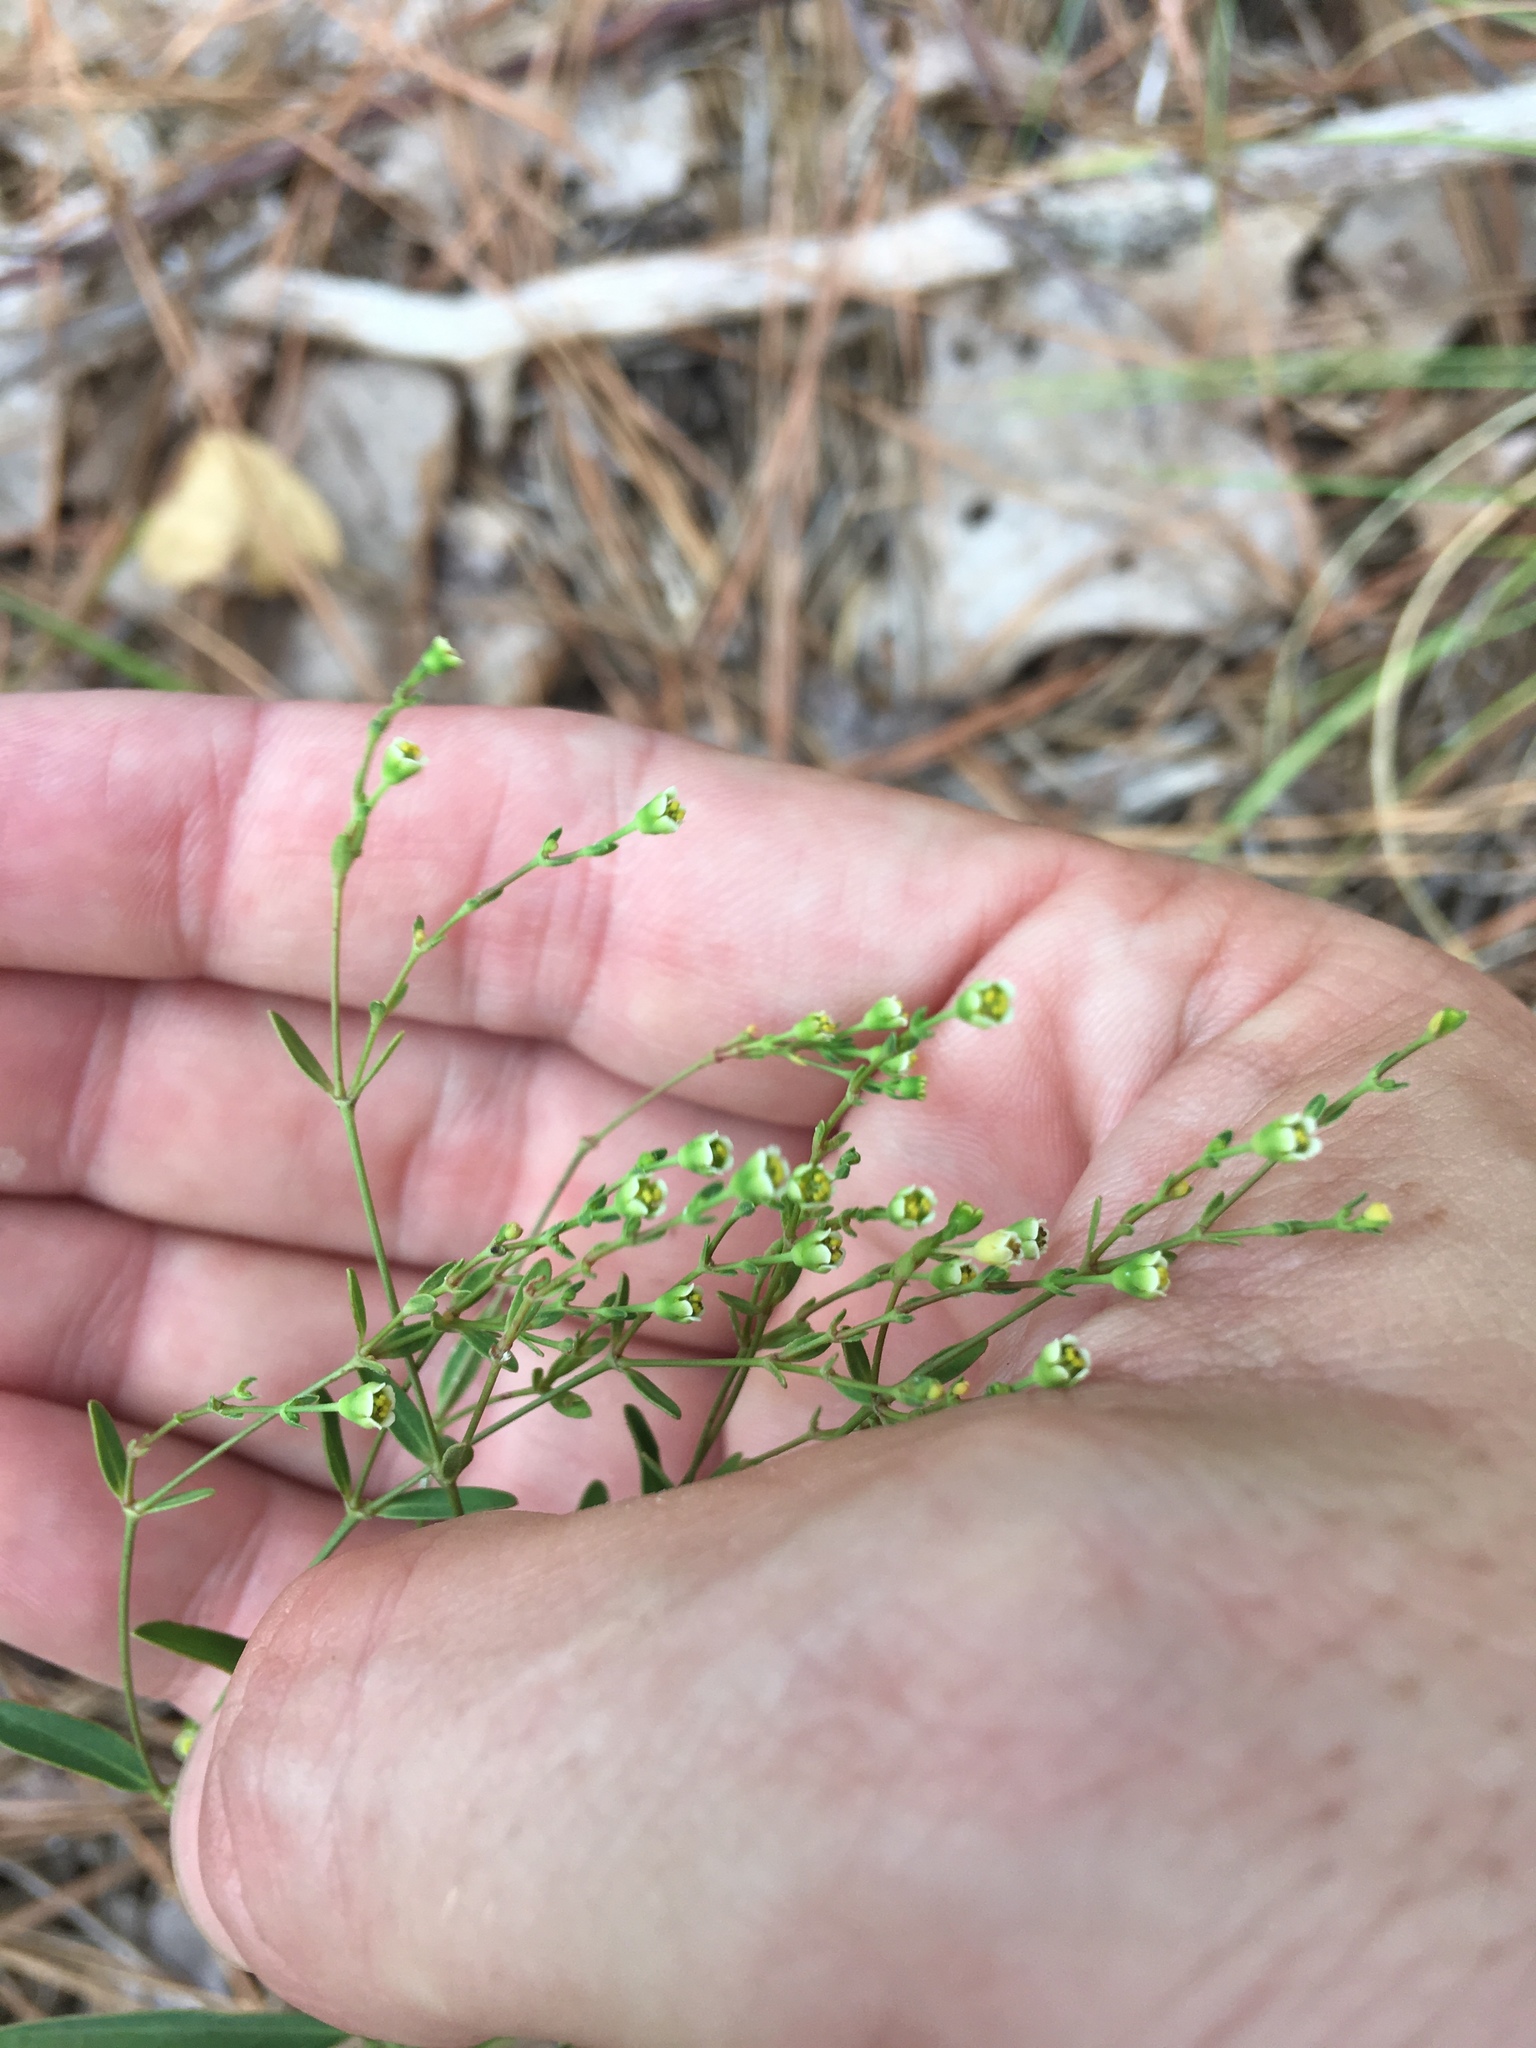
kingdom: Plantae
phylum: Tracheophyta
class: Magnoliopsida
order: Malpighiales
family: Euphorbiaceae
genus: Euphorbia
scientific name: Euphorbia curtisii
